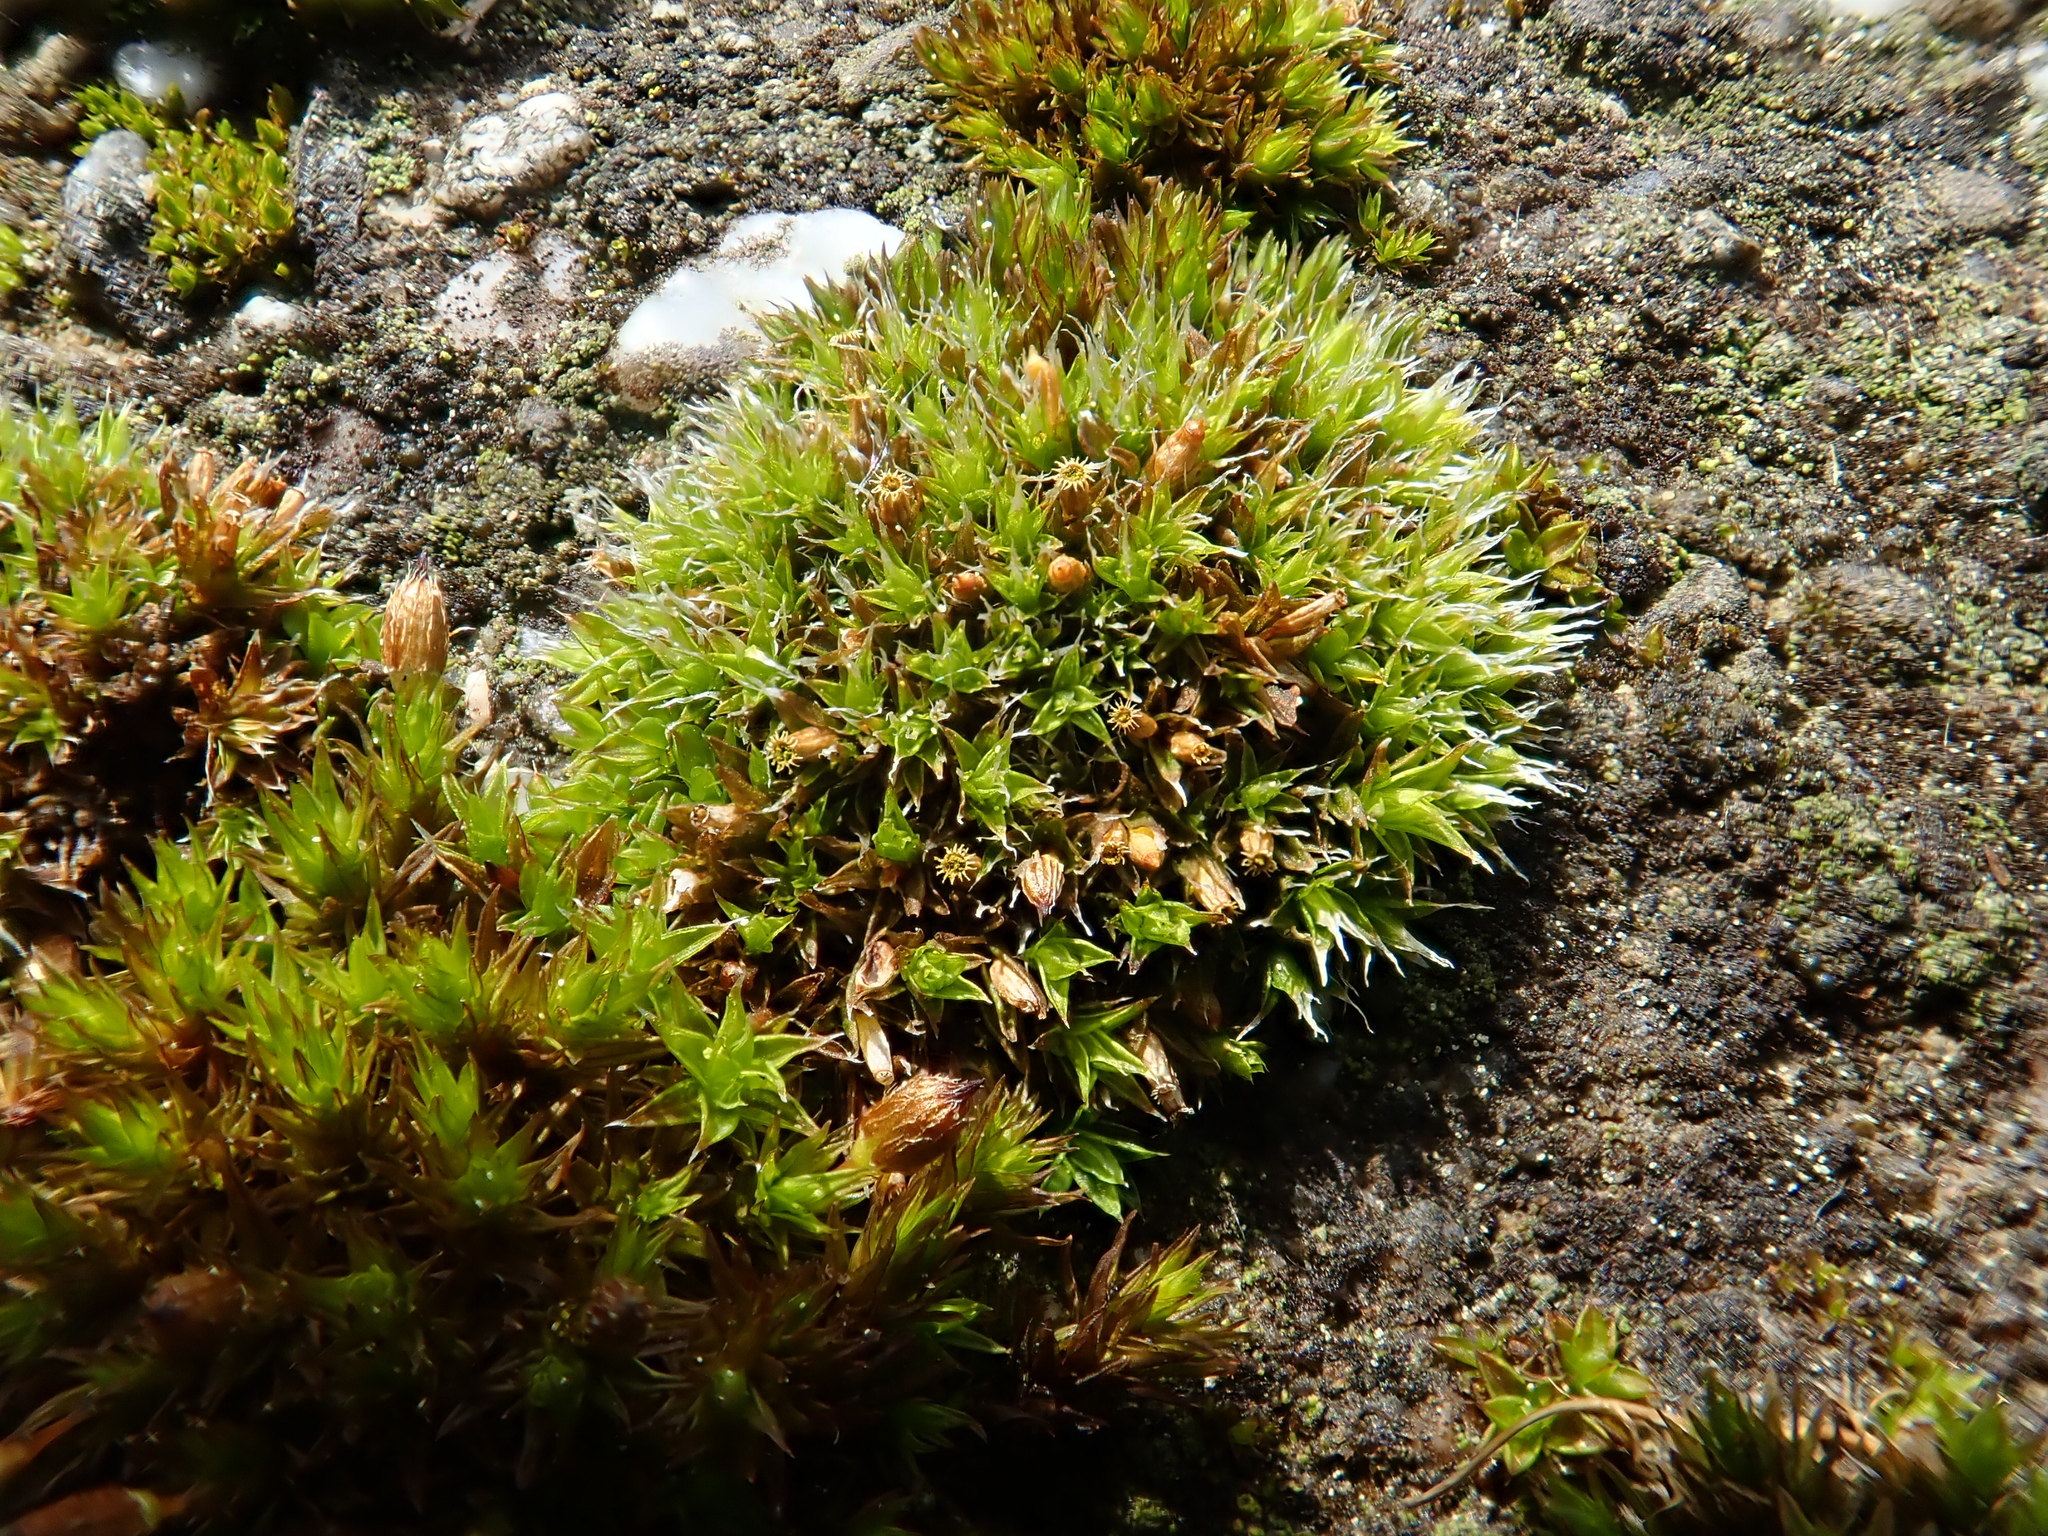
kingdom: Plantae
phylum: Bryophyta
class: Bryopsida
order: Orthotrichales
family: Orthotrichaceae
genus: Orthotrichum
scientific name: Orthotrichum diaphanum
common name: White-tipped bristle-moss
